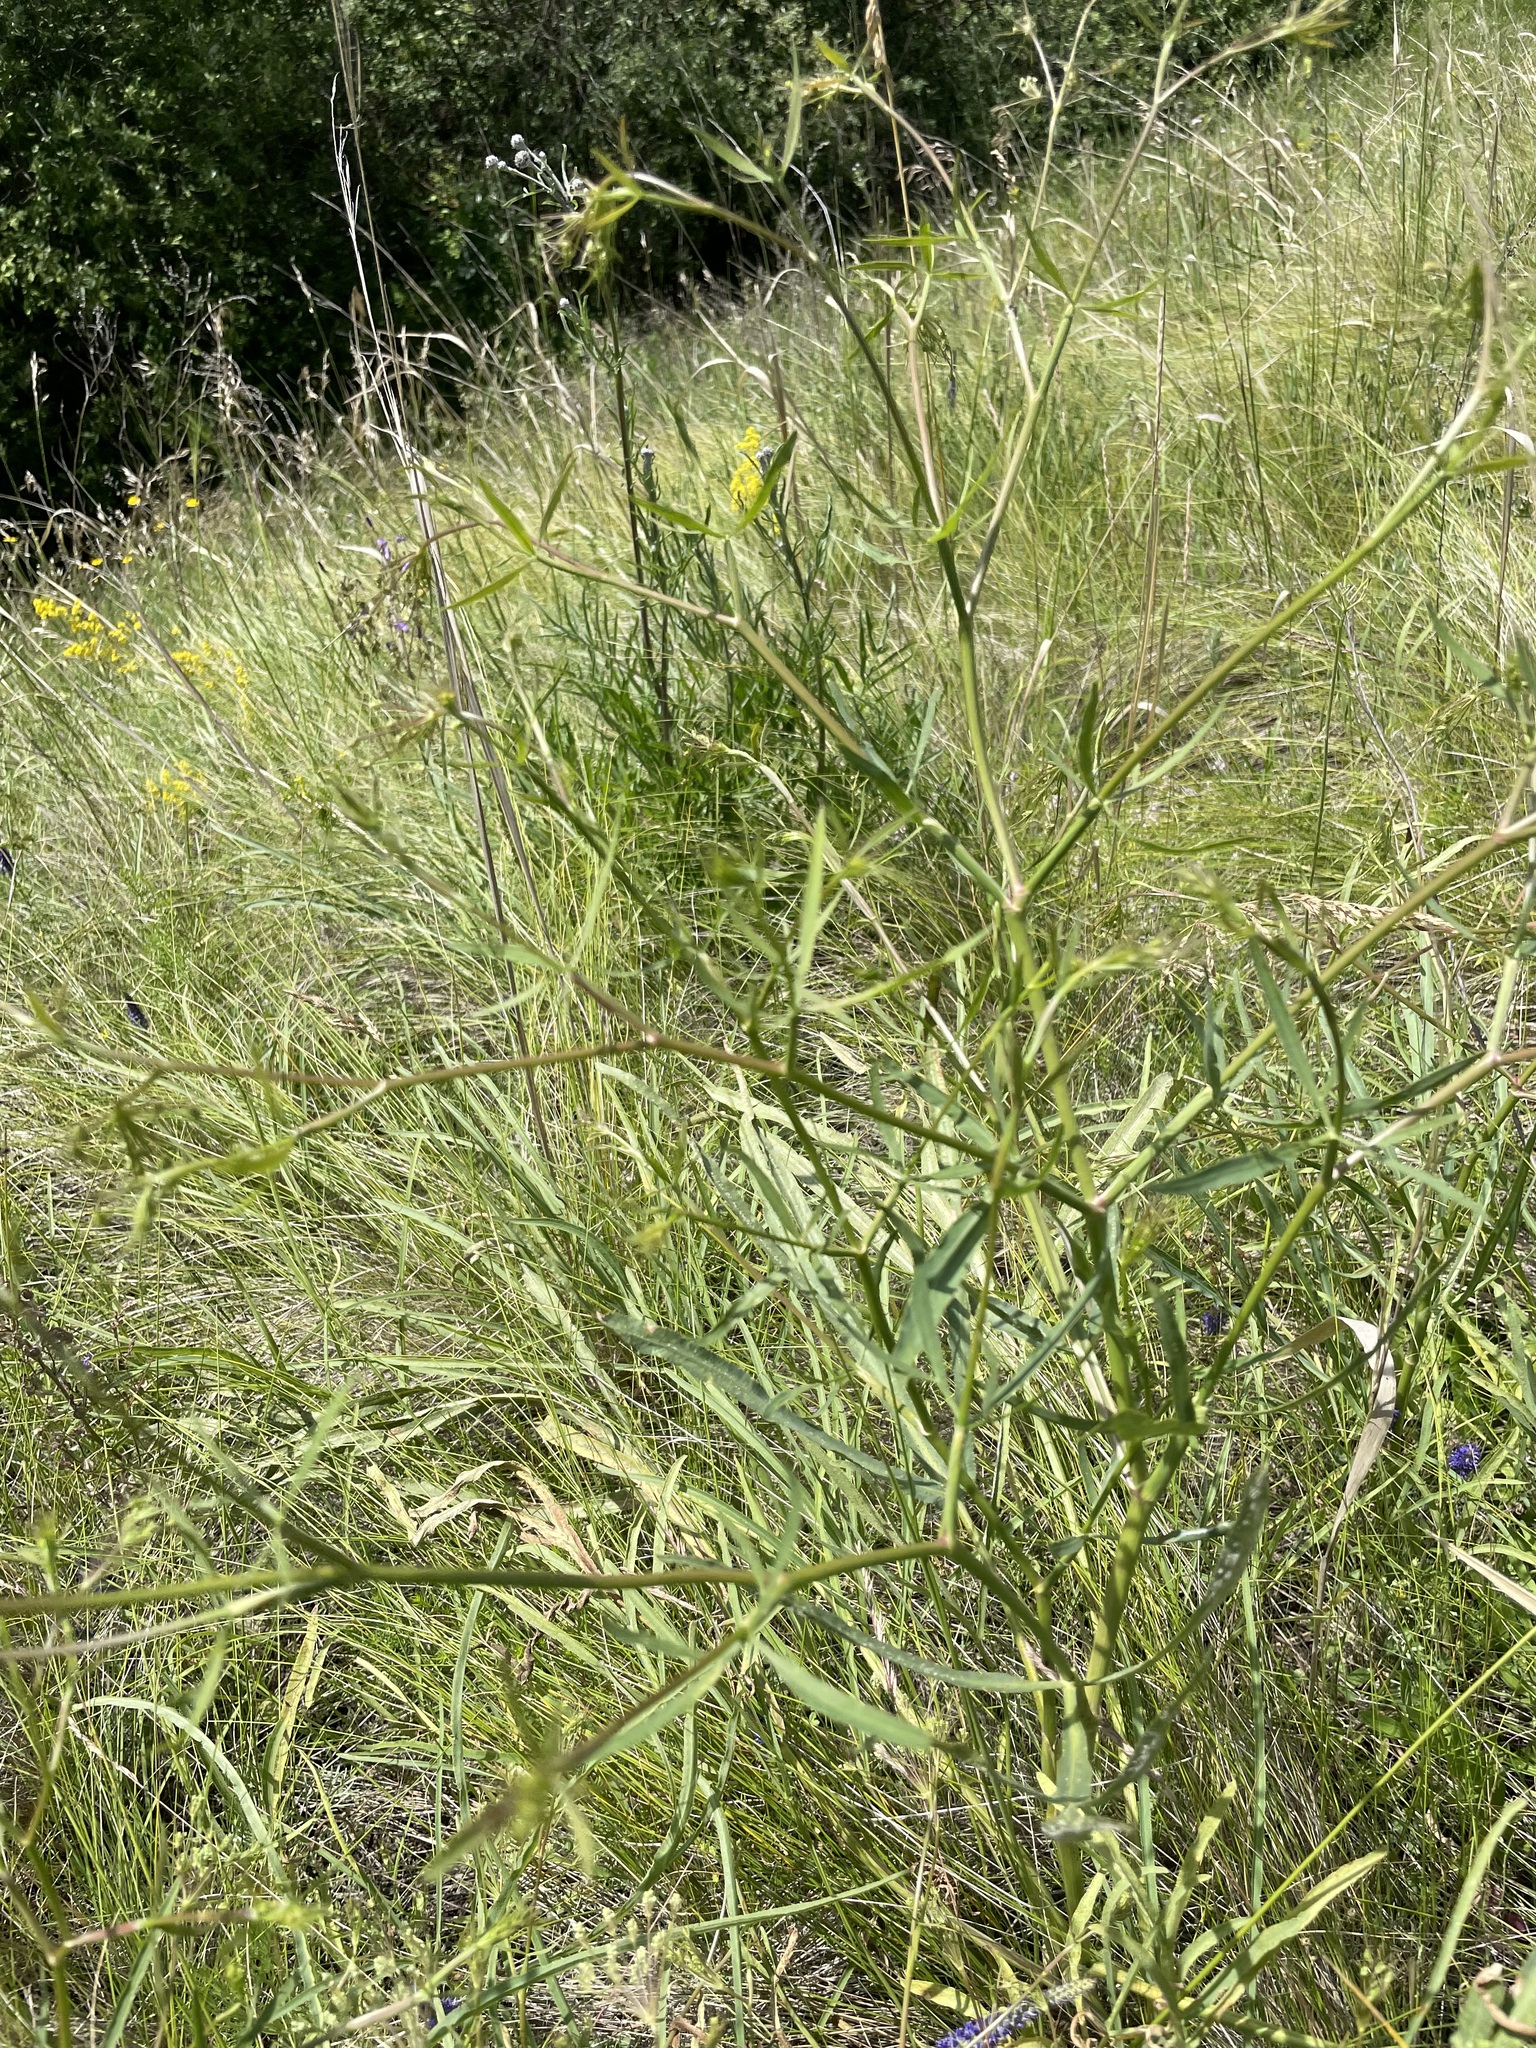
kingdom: Plantae
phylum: Tracheophyta
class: Magnoliopsida
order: Apiales
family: Apiaceae
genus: Falcaria
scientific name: Falcaria vulgaris
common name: Longleaf
